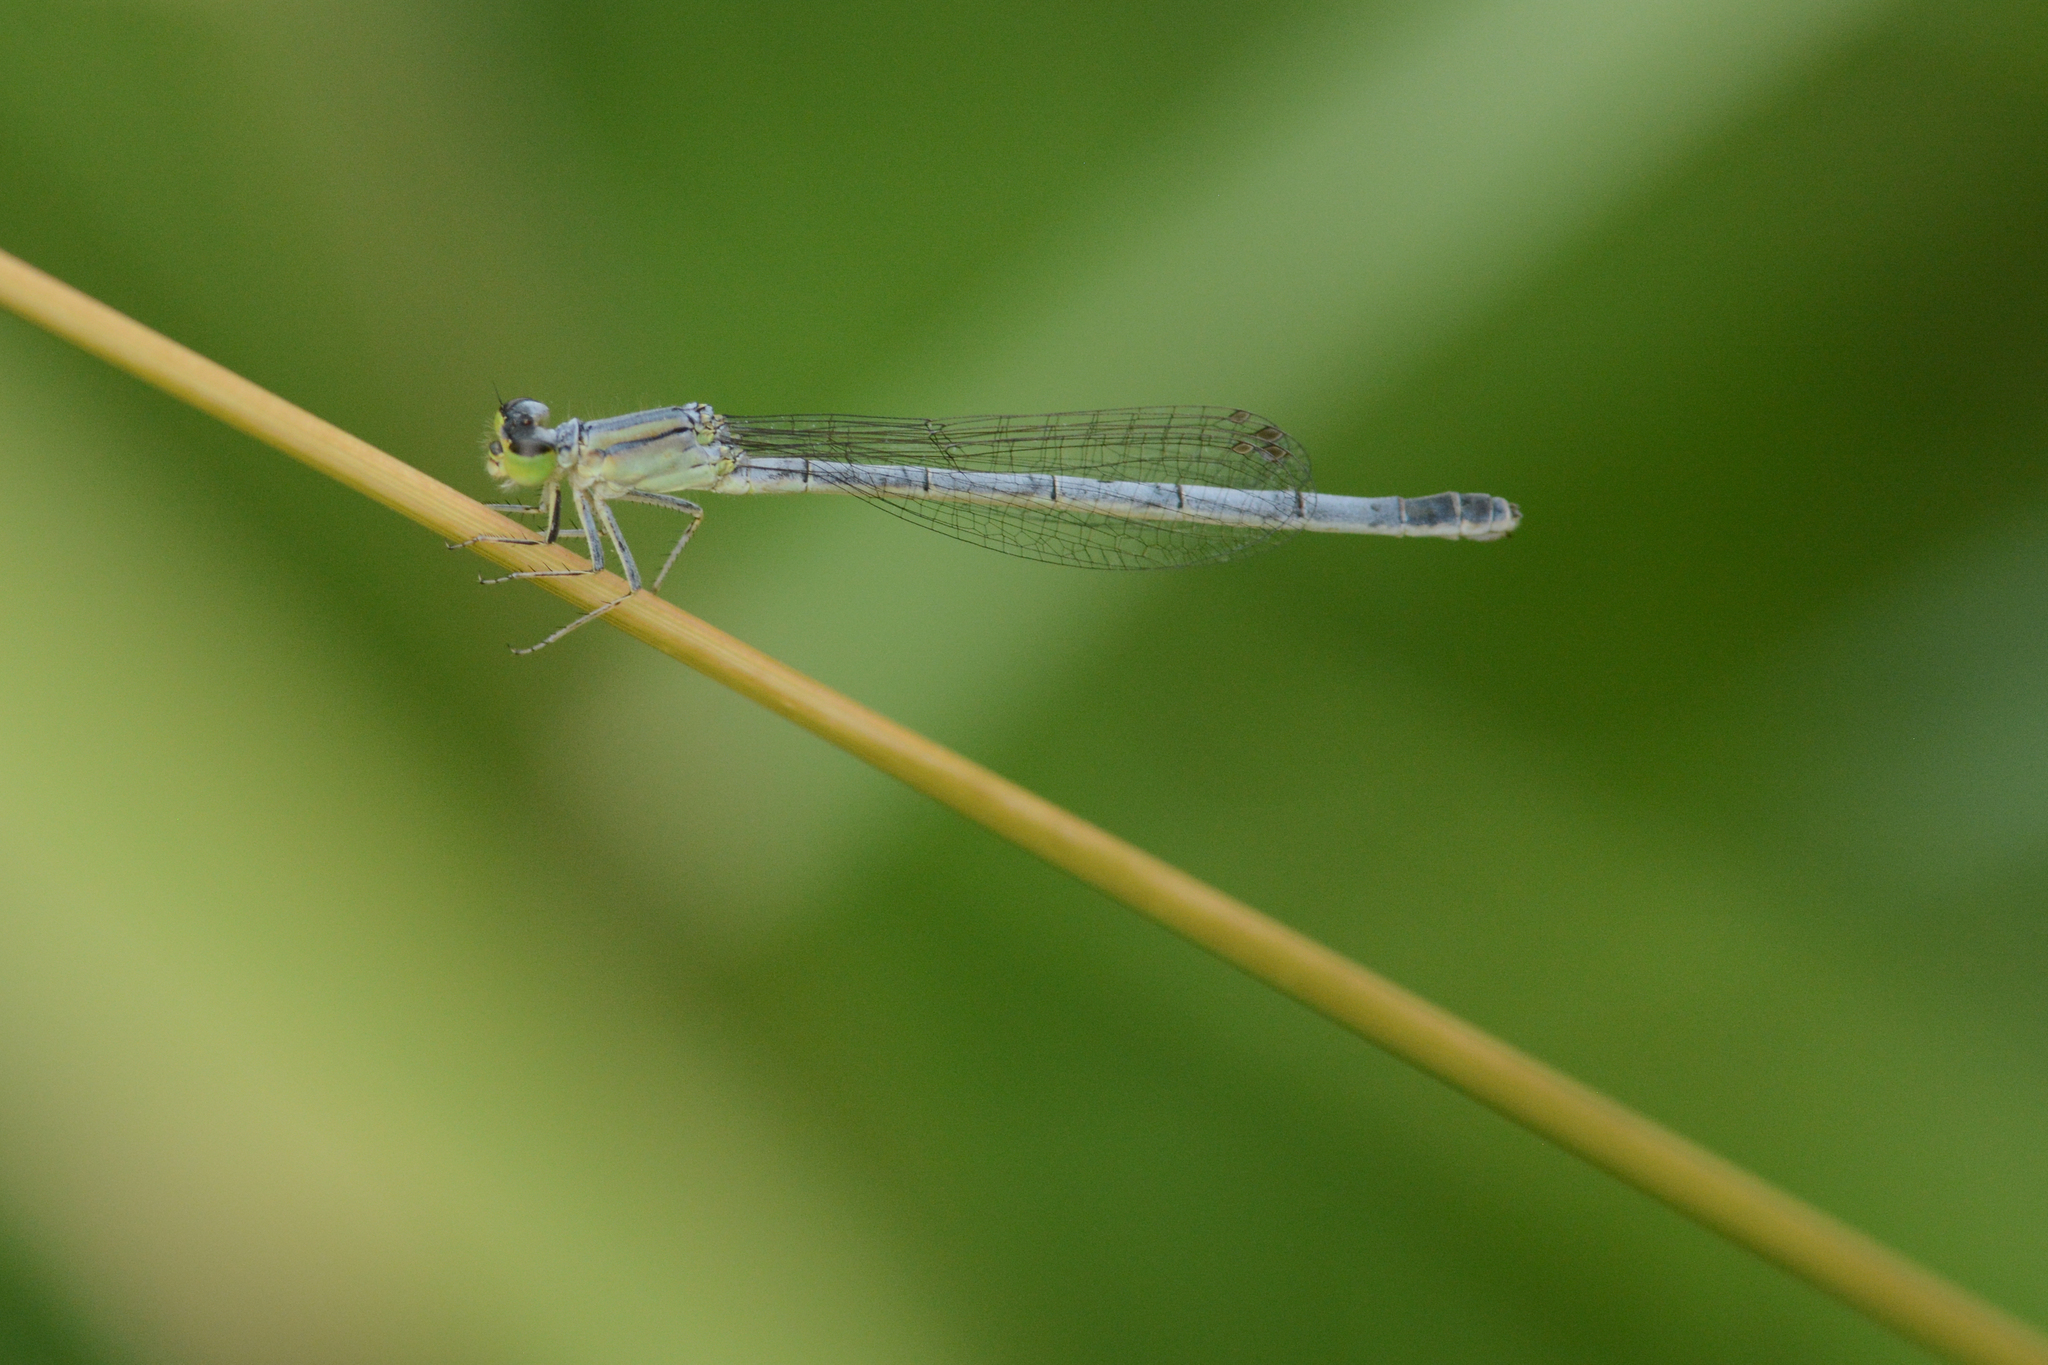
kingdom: Animalia
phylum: Arthropoda
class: Insecta
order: Odonata
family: Coenagrionidae
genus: Ischnura
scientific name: Ischnura perparva
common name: Western forktail
